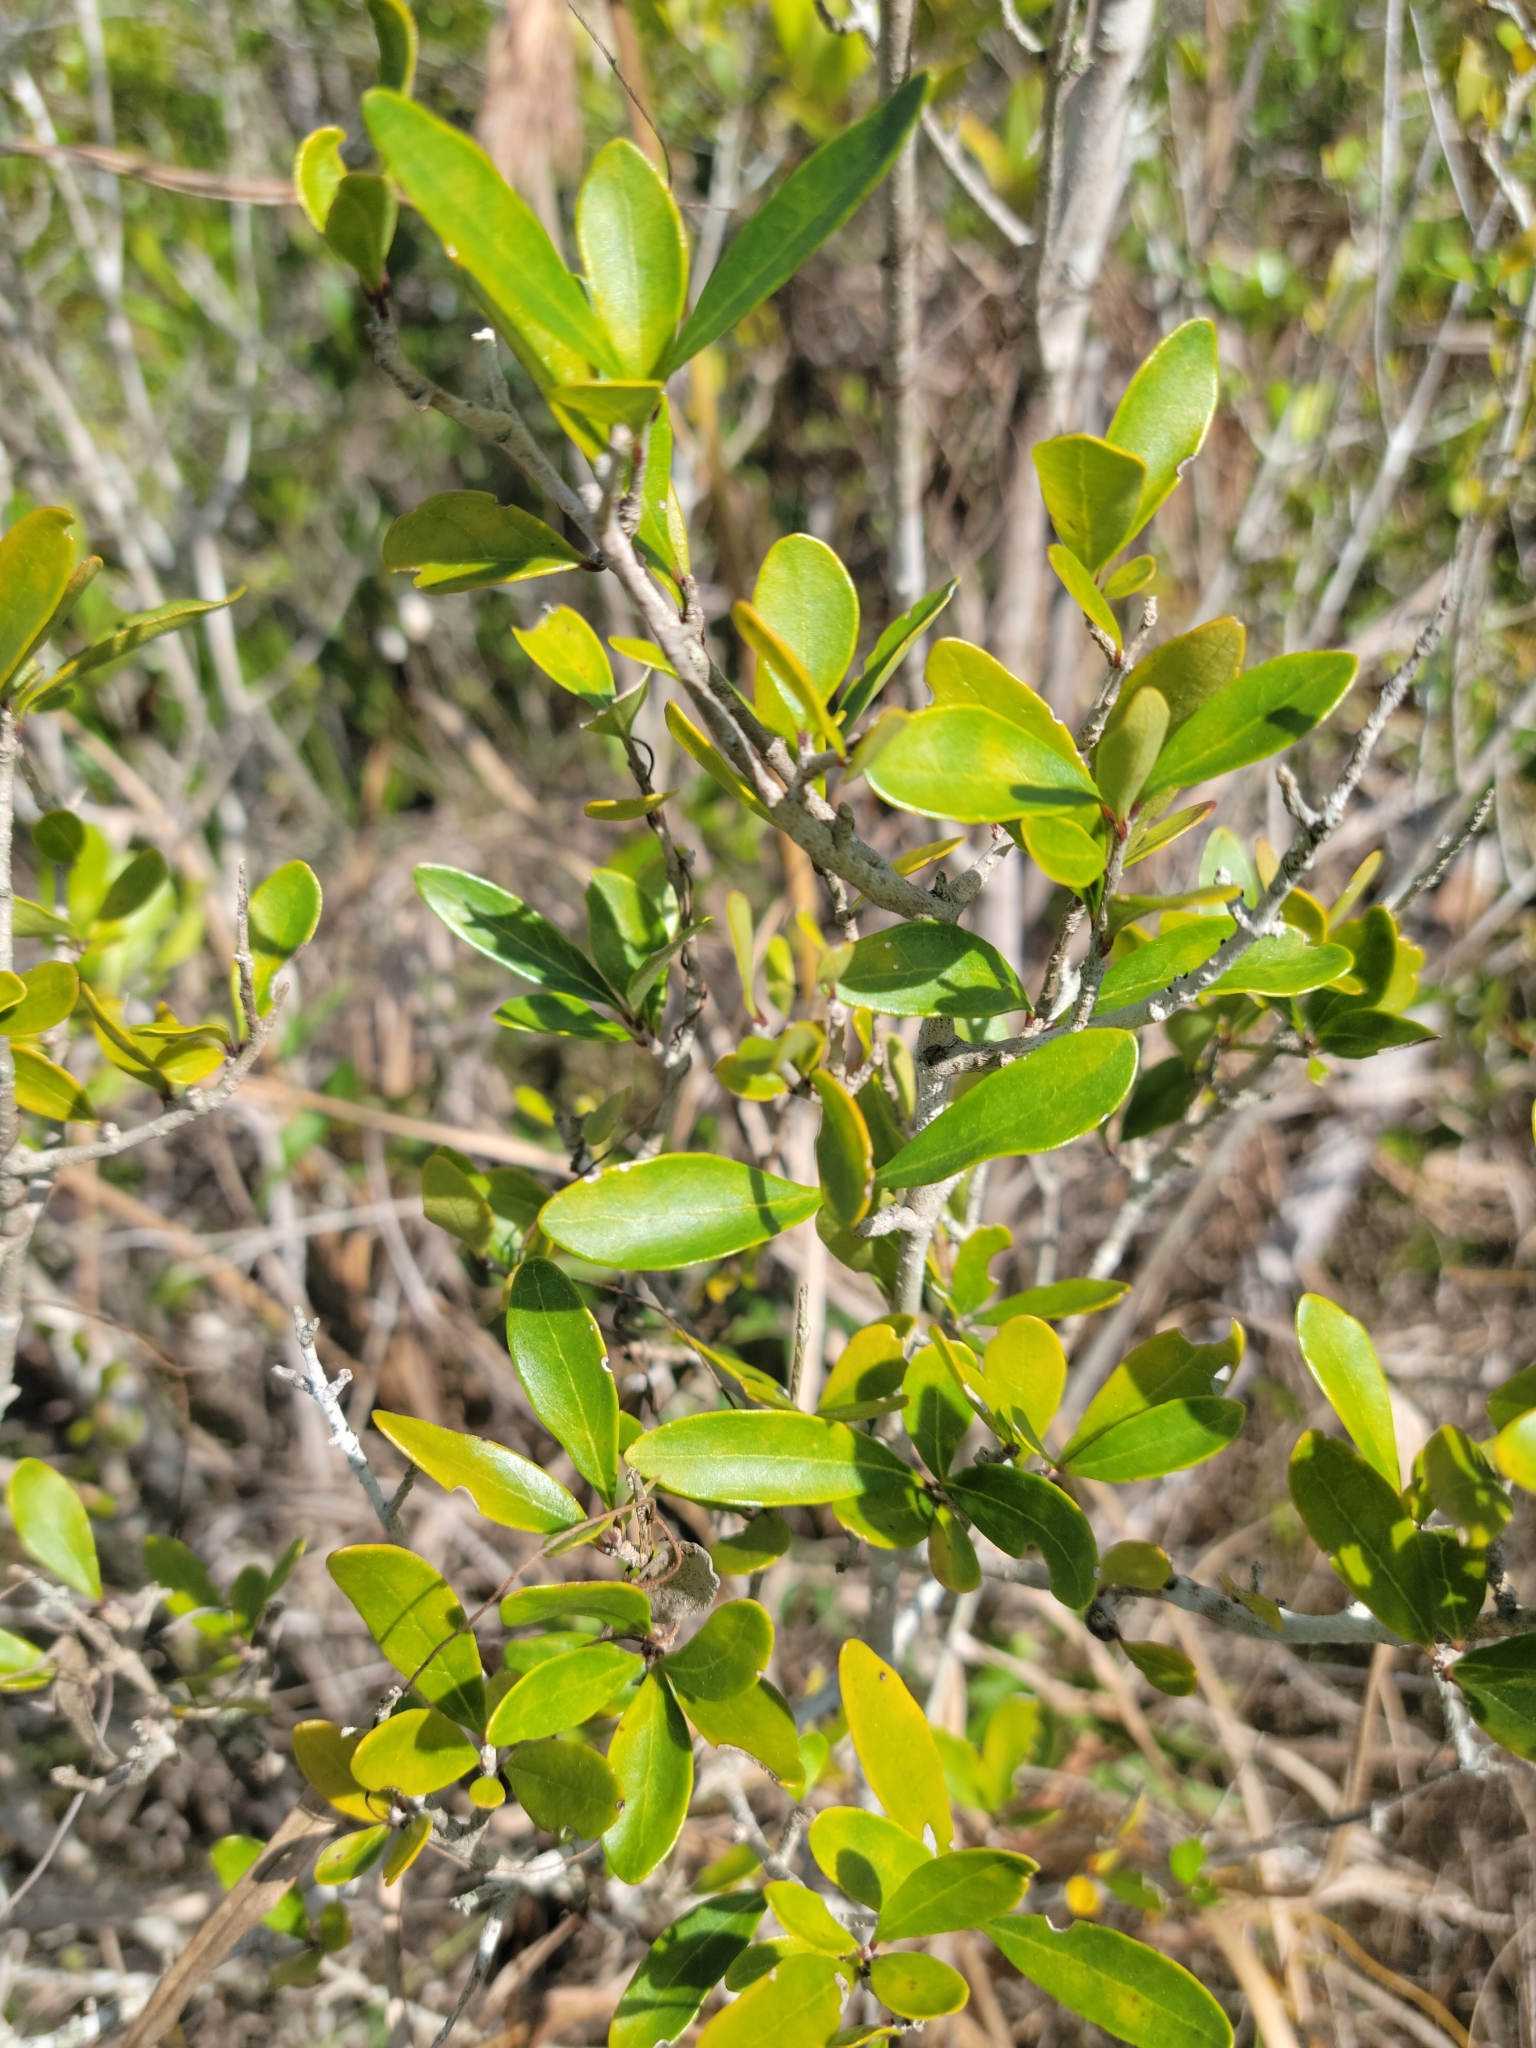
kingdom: Plantae
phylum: Tracheophyta
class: Magnoliopsida
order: Lamiales
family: Oleaceae
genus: Forestiera
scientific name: Forestiera segregata
